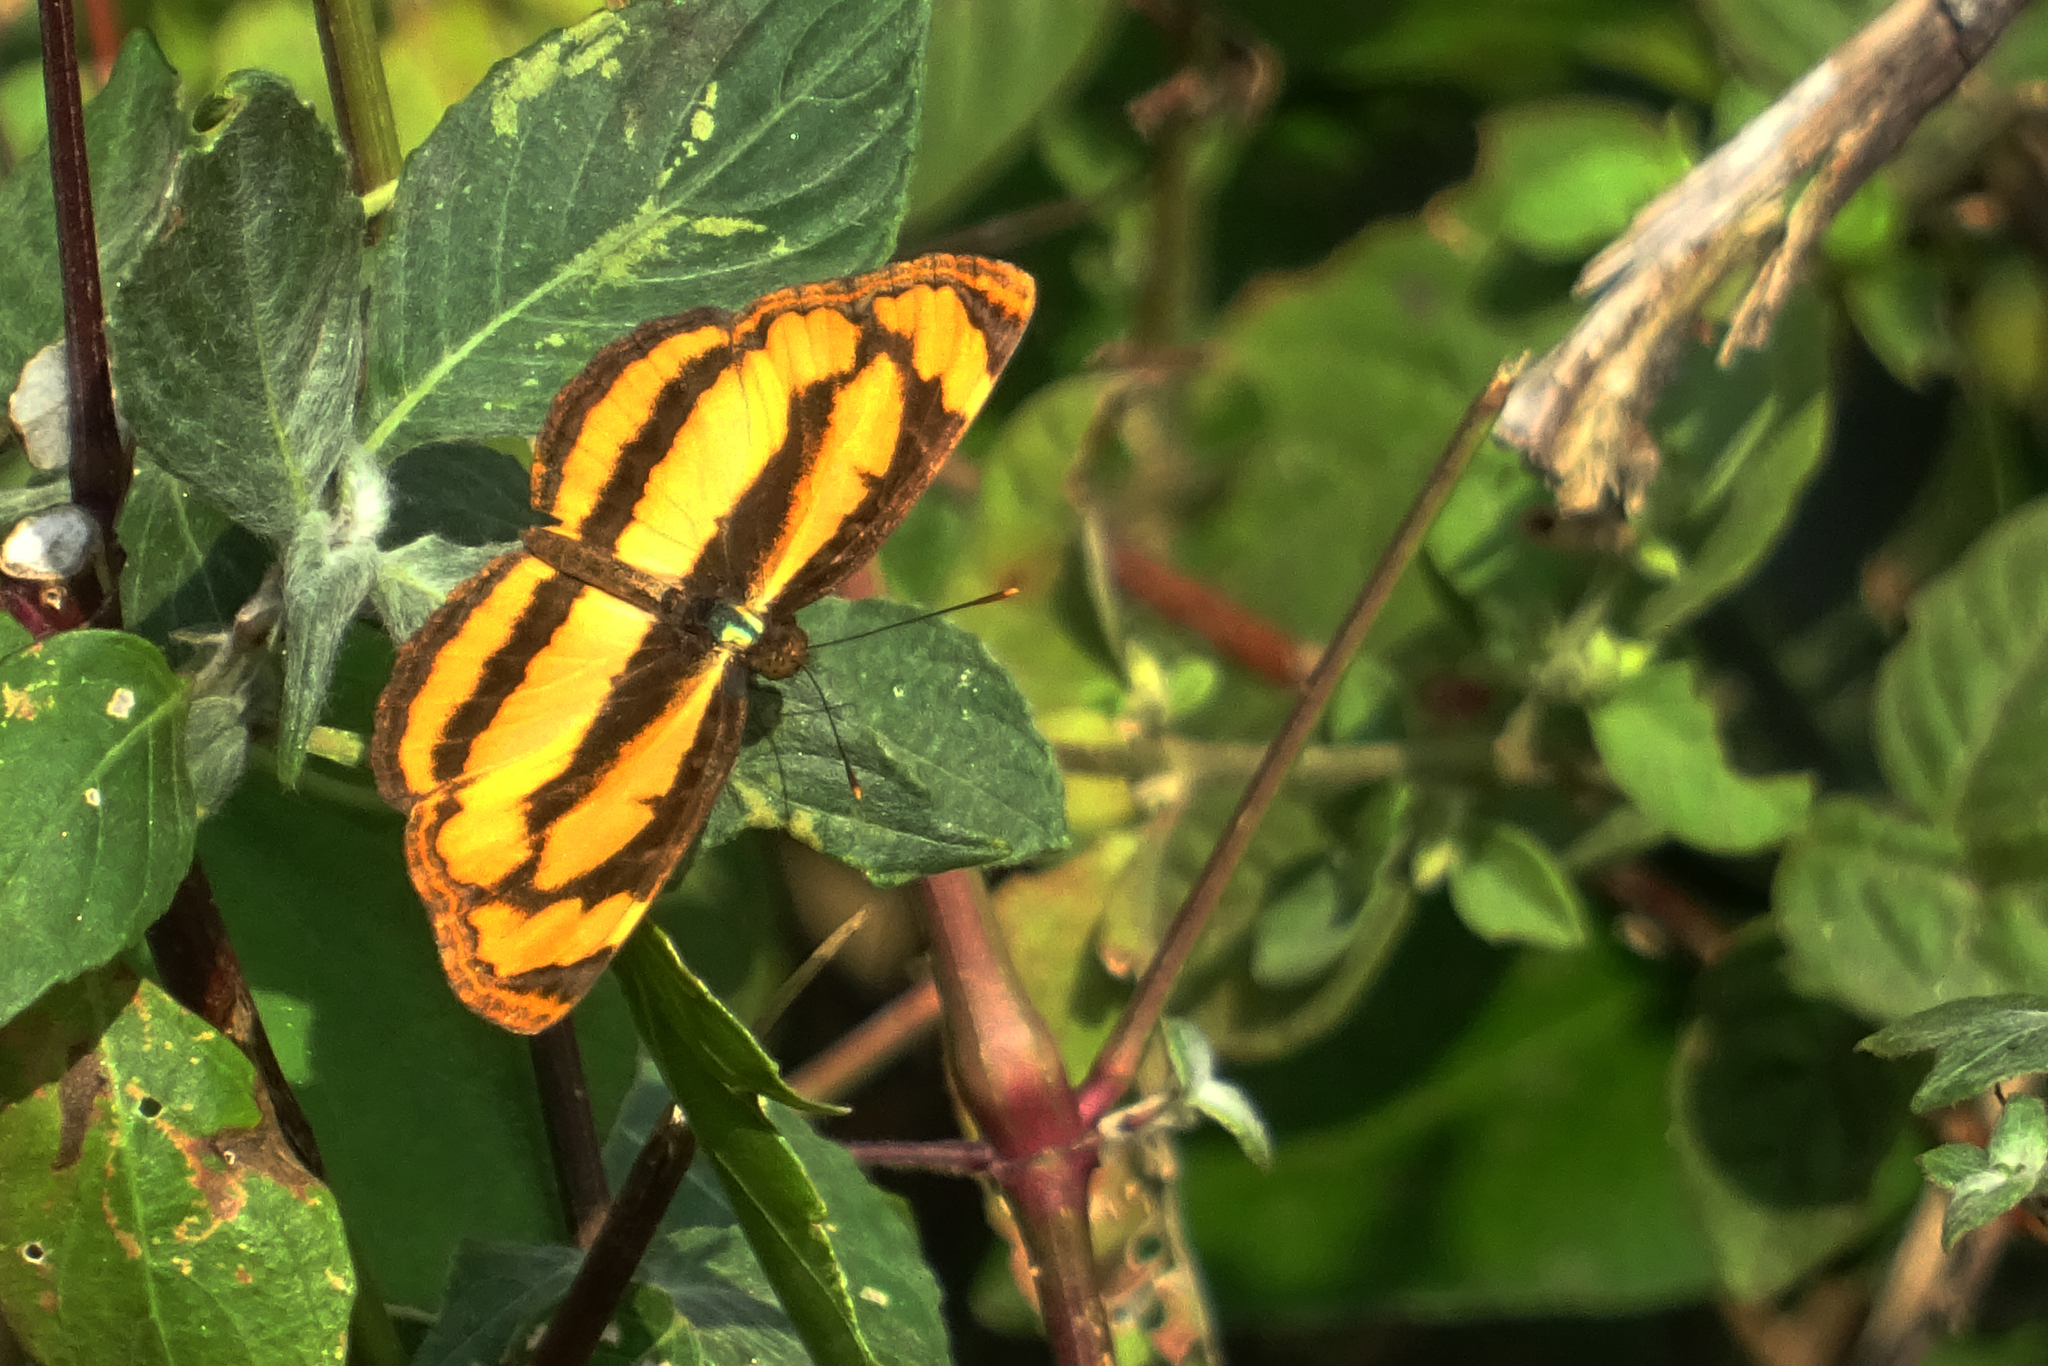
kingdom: Animalia
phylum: Arthropoda
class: Insecta
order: Lepidoptera
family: Nymphalidae
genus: Pantoporia
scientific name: Pantoporia sandaka
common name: Extra lascar
